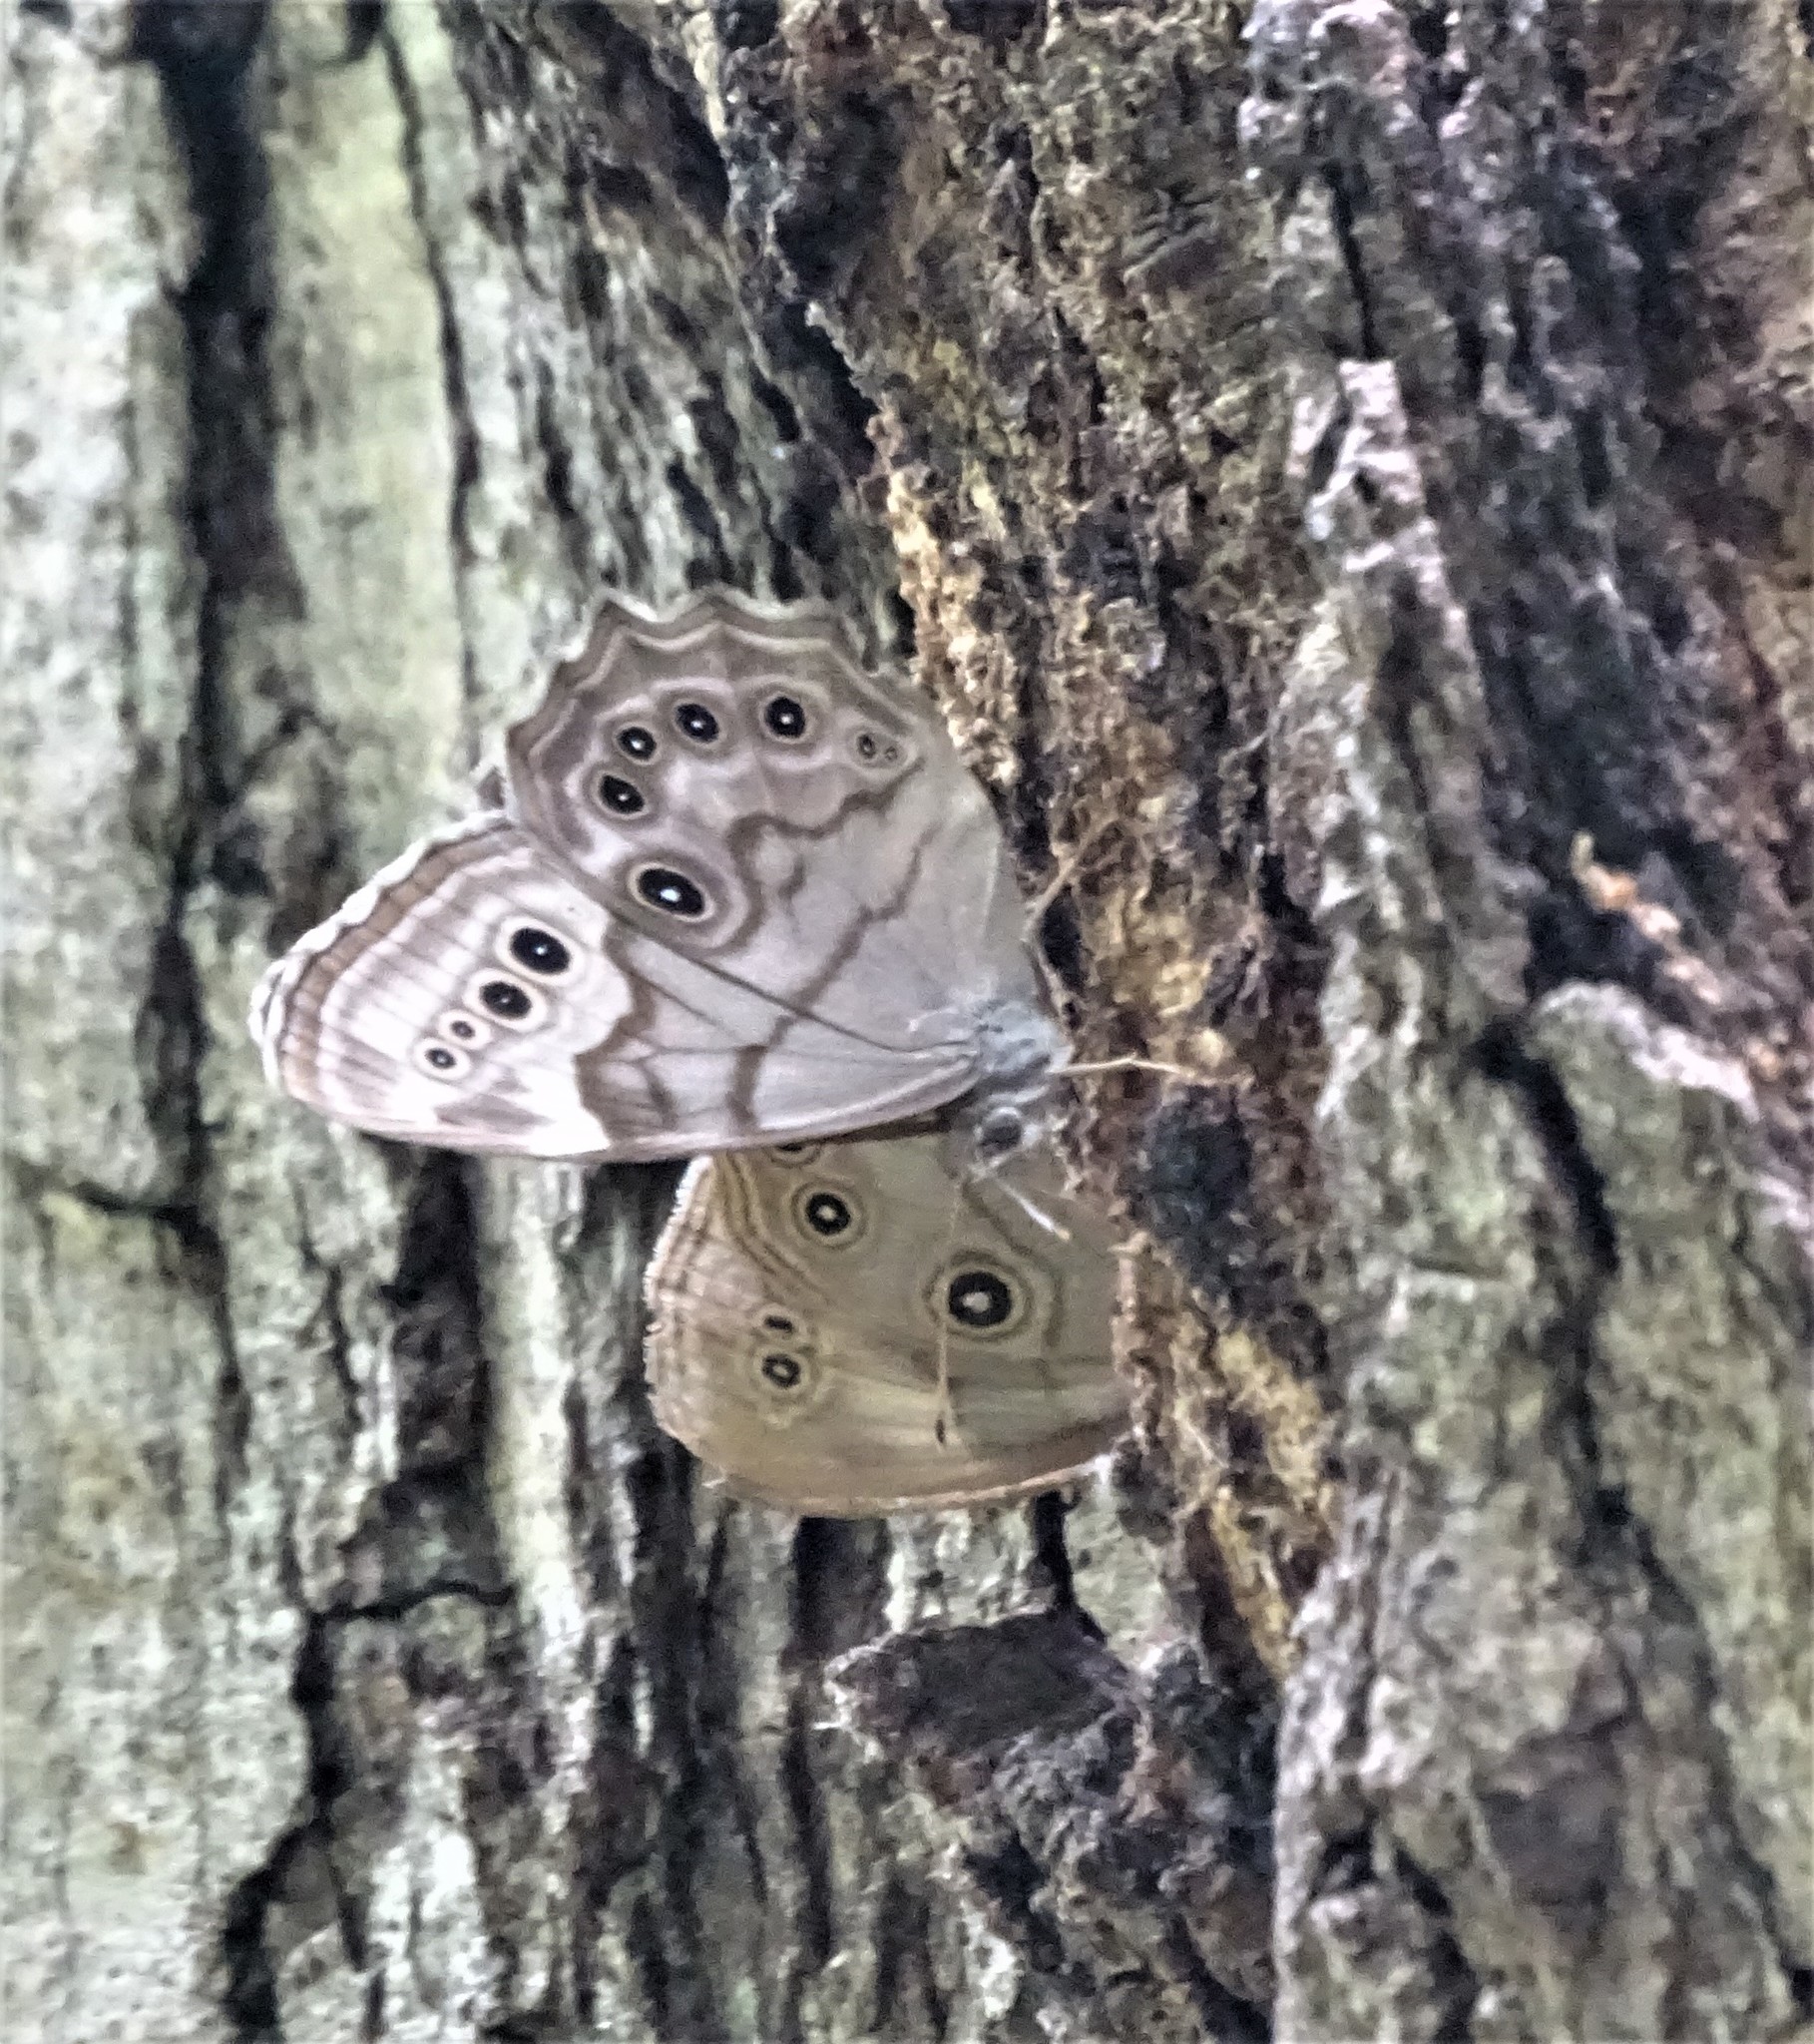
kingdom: Animalia
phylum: Arthropoda
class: Insecta
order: Lepidoptera
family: Nymphalidae
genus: Lethe
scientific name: Lethe anthedon
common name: Northern pearly-eye
